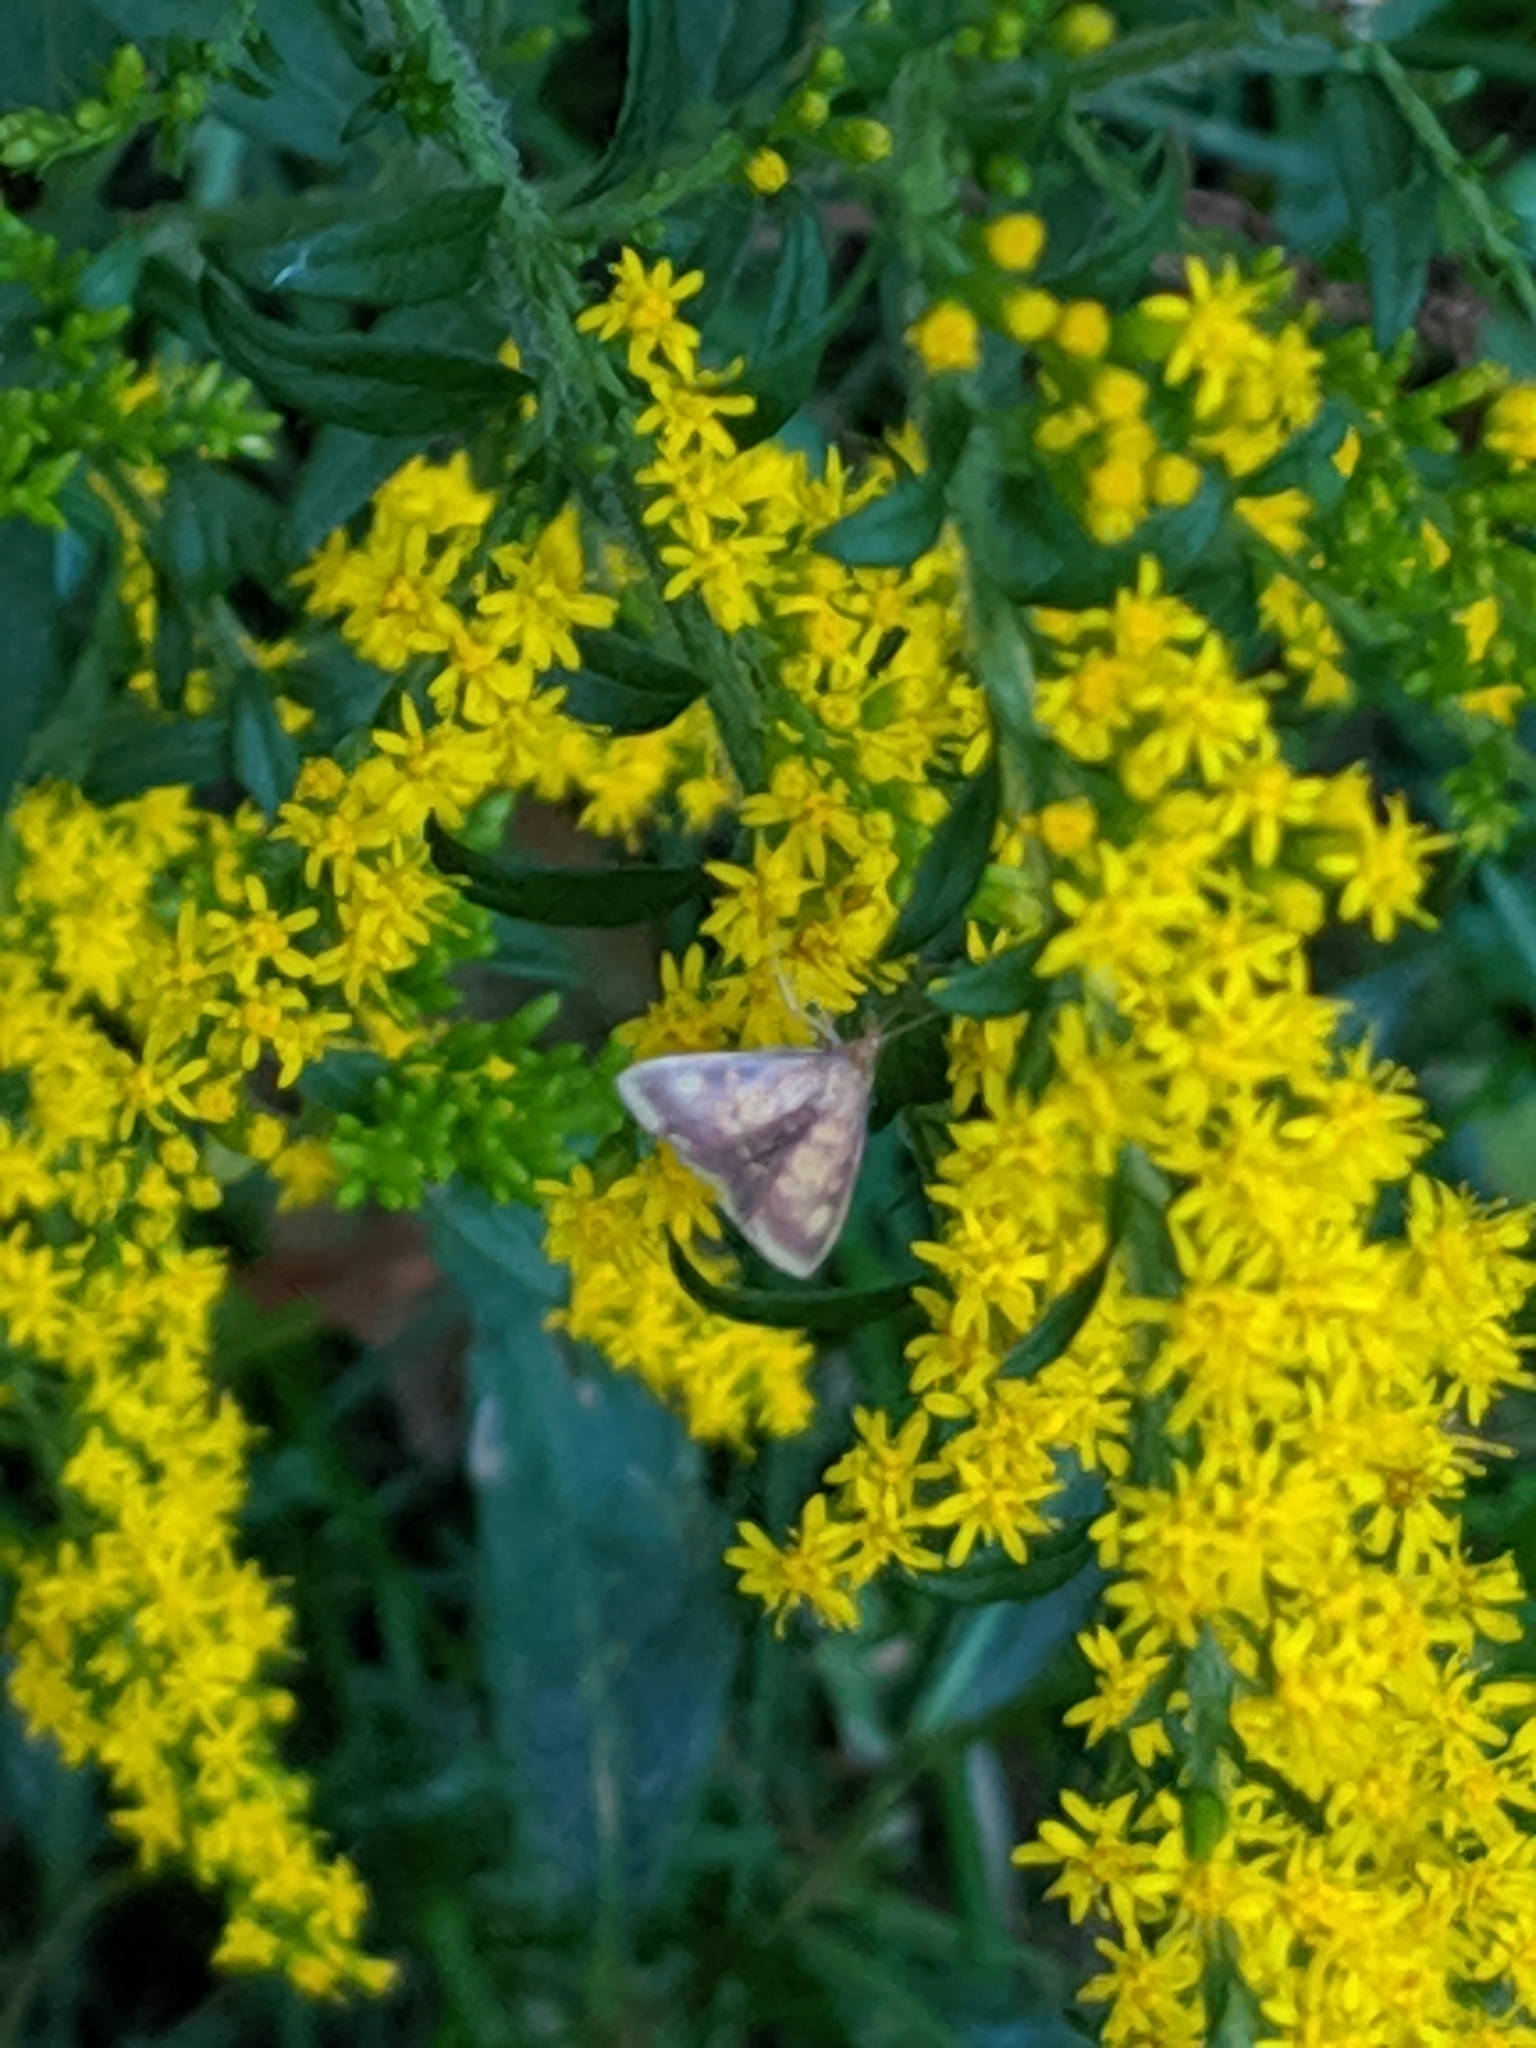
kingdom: Animalia
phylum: Arthropoda
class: Insecta
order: Lepidoptera
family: Crambidae
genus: Pyrausta
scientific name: Pyrausta acrionalis
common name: Mint-loving pyrausta moth
